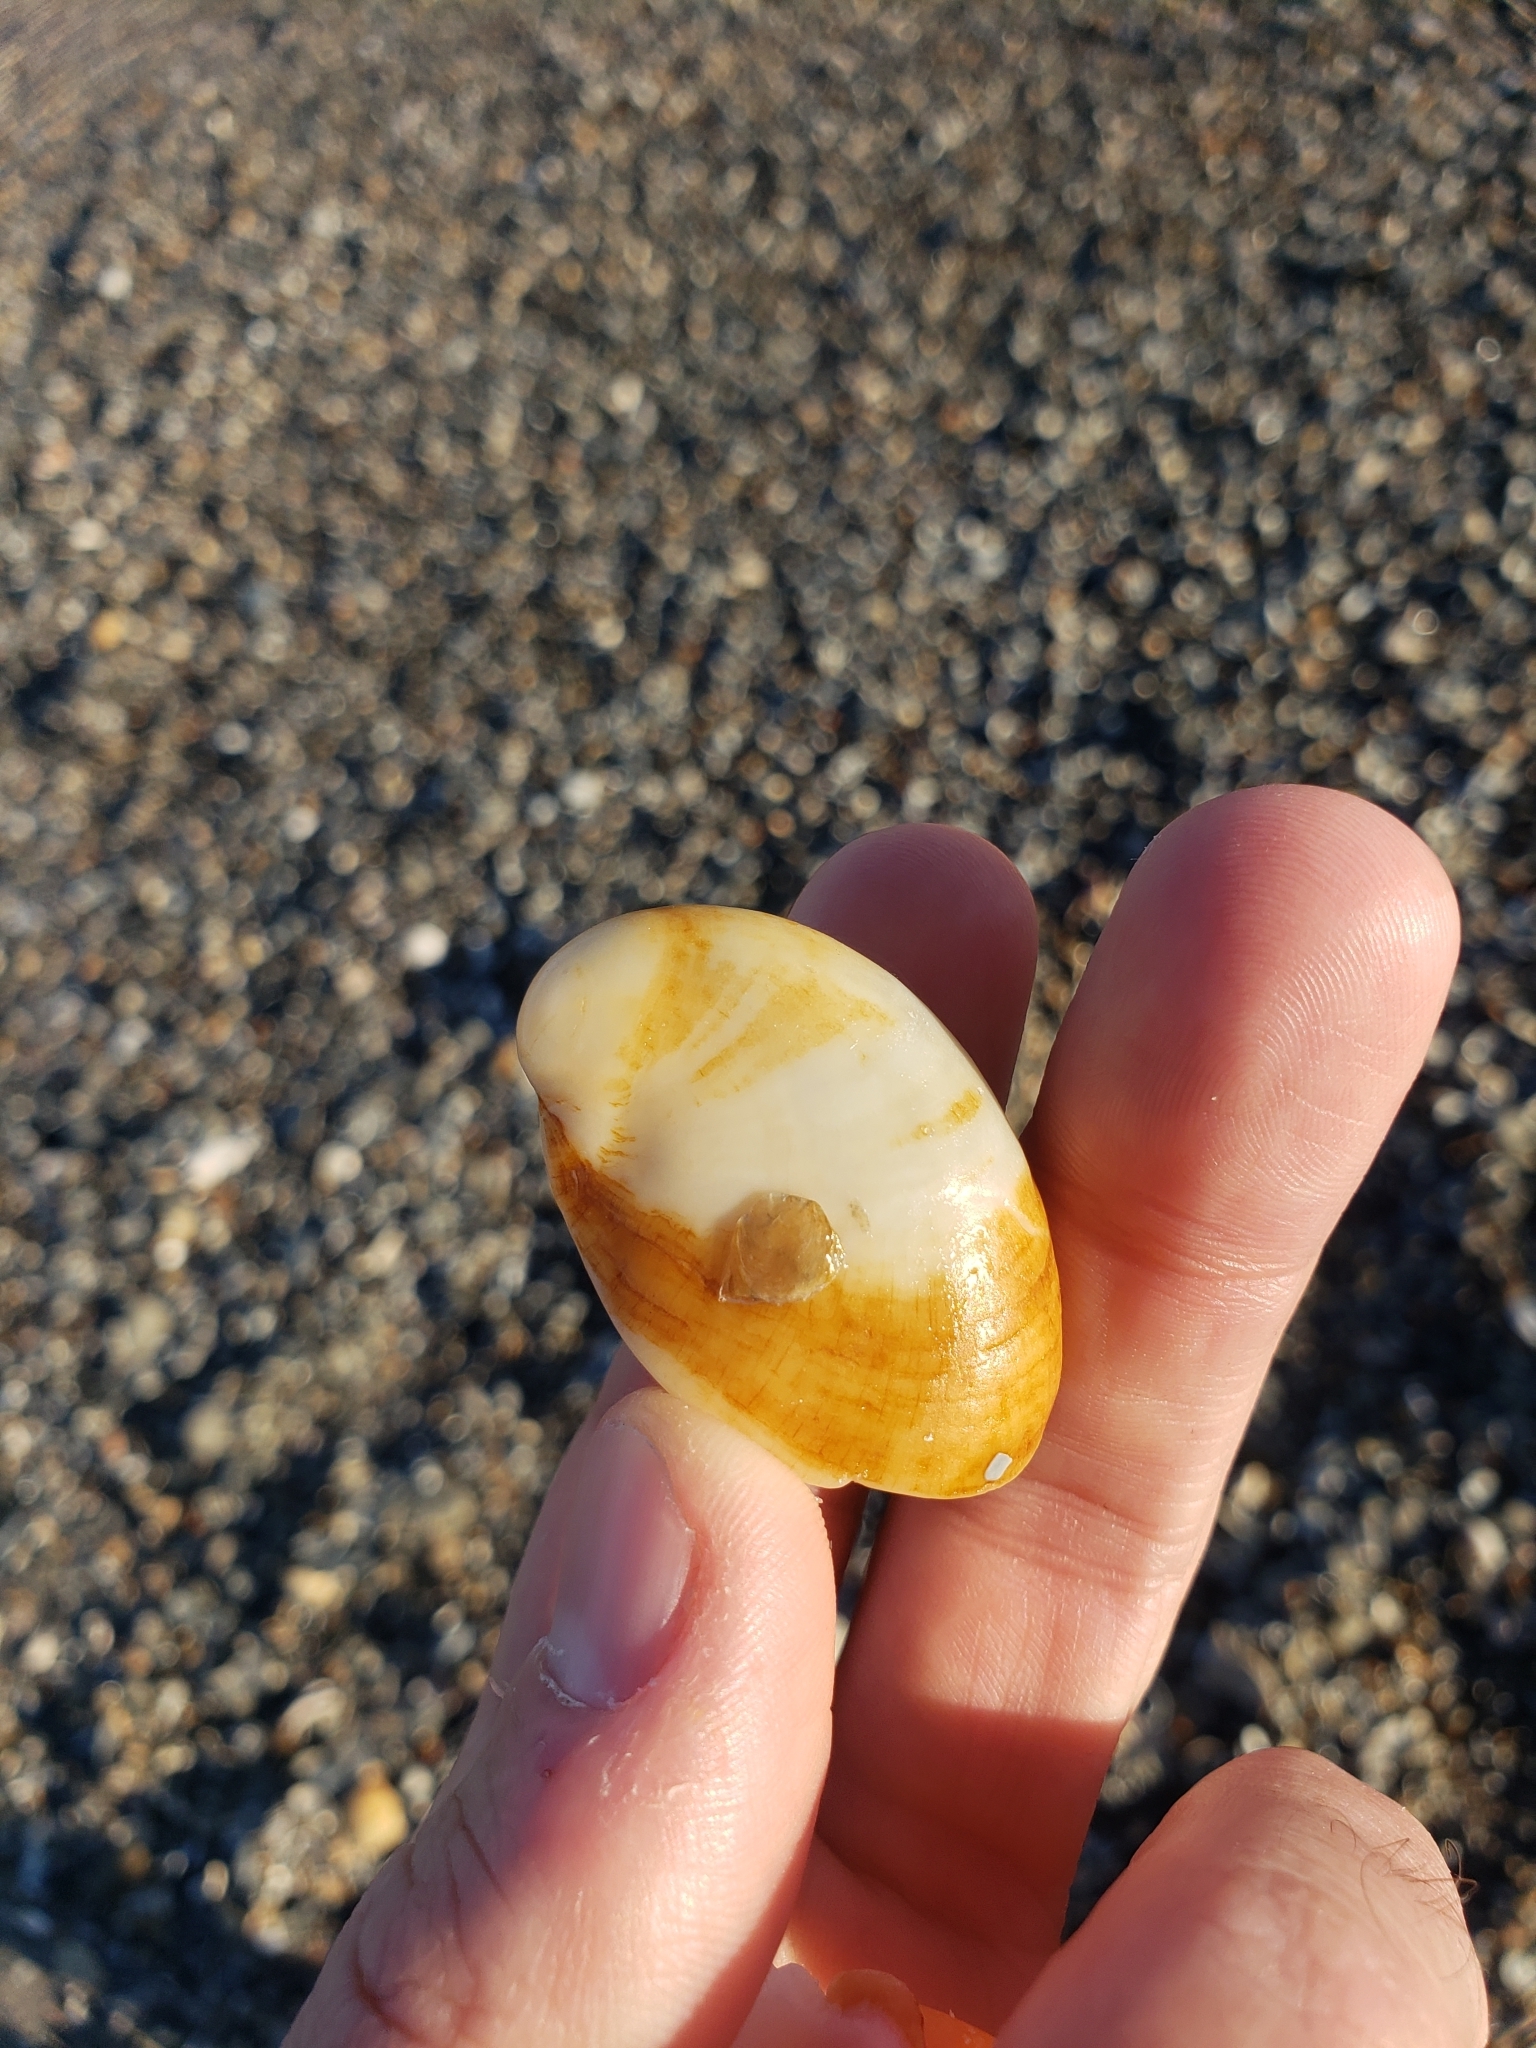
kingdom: Animalia
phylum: Mollusca
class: Gastropoda
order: Littorinimorpha
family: Calyptraeidae
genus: Crepidula
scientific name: Crepidula fornicata
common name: Slipper limpet
